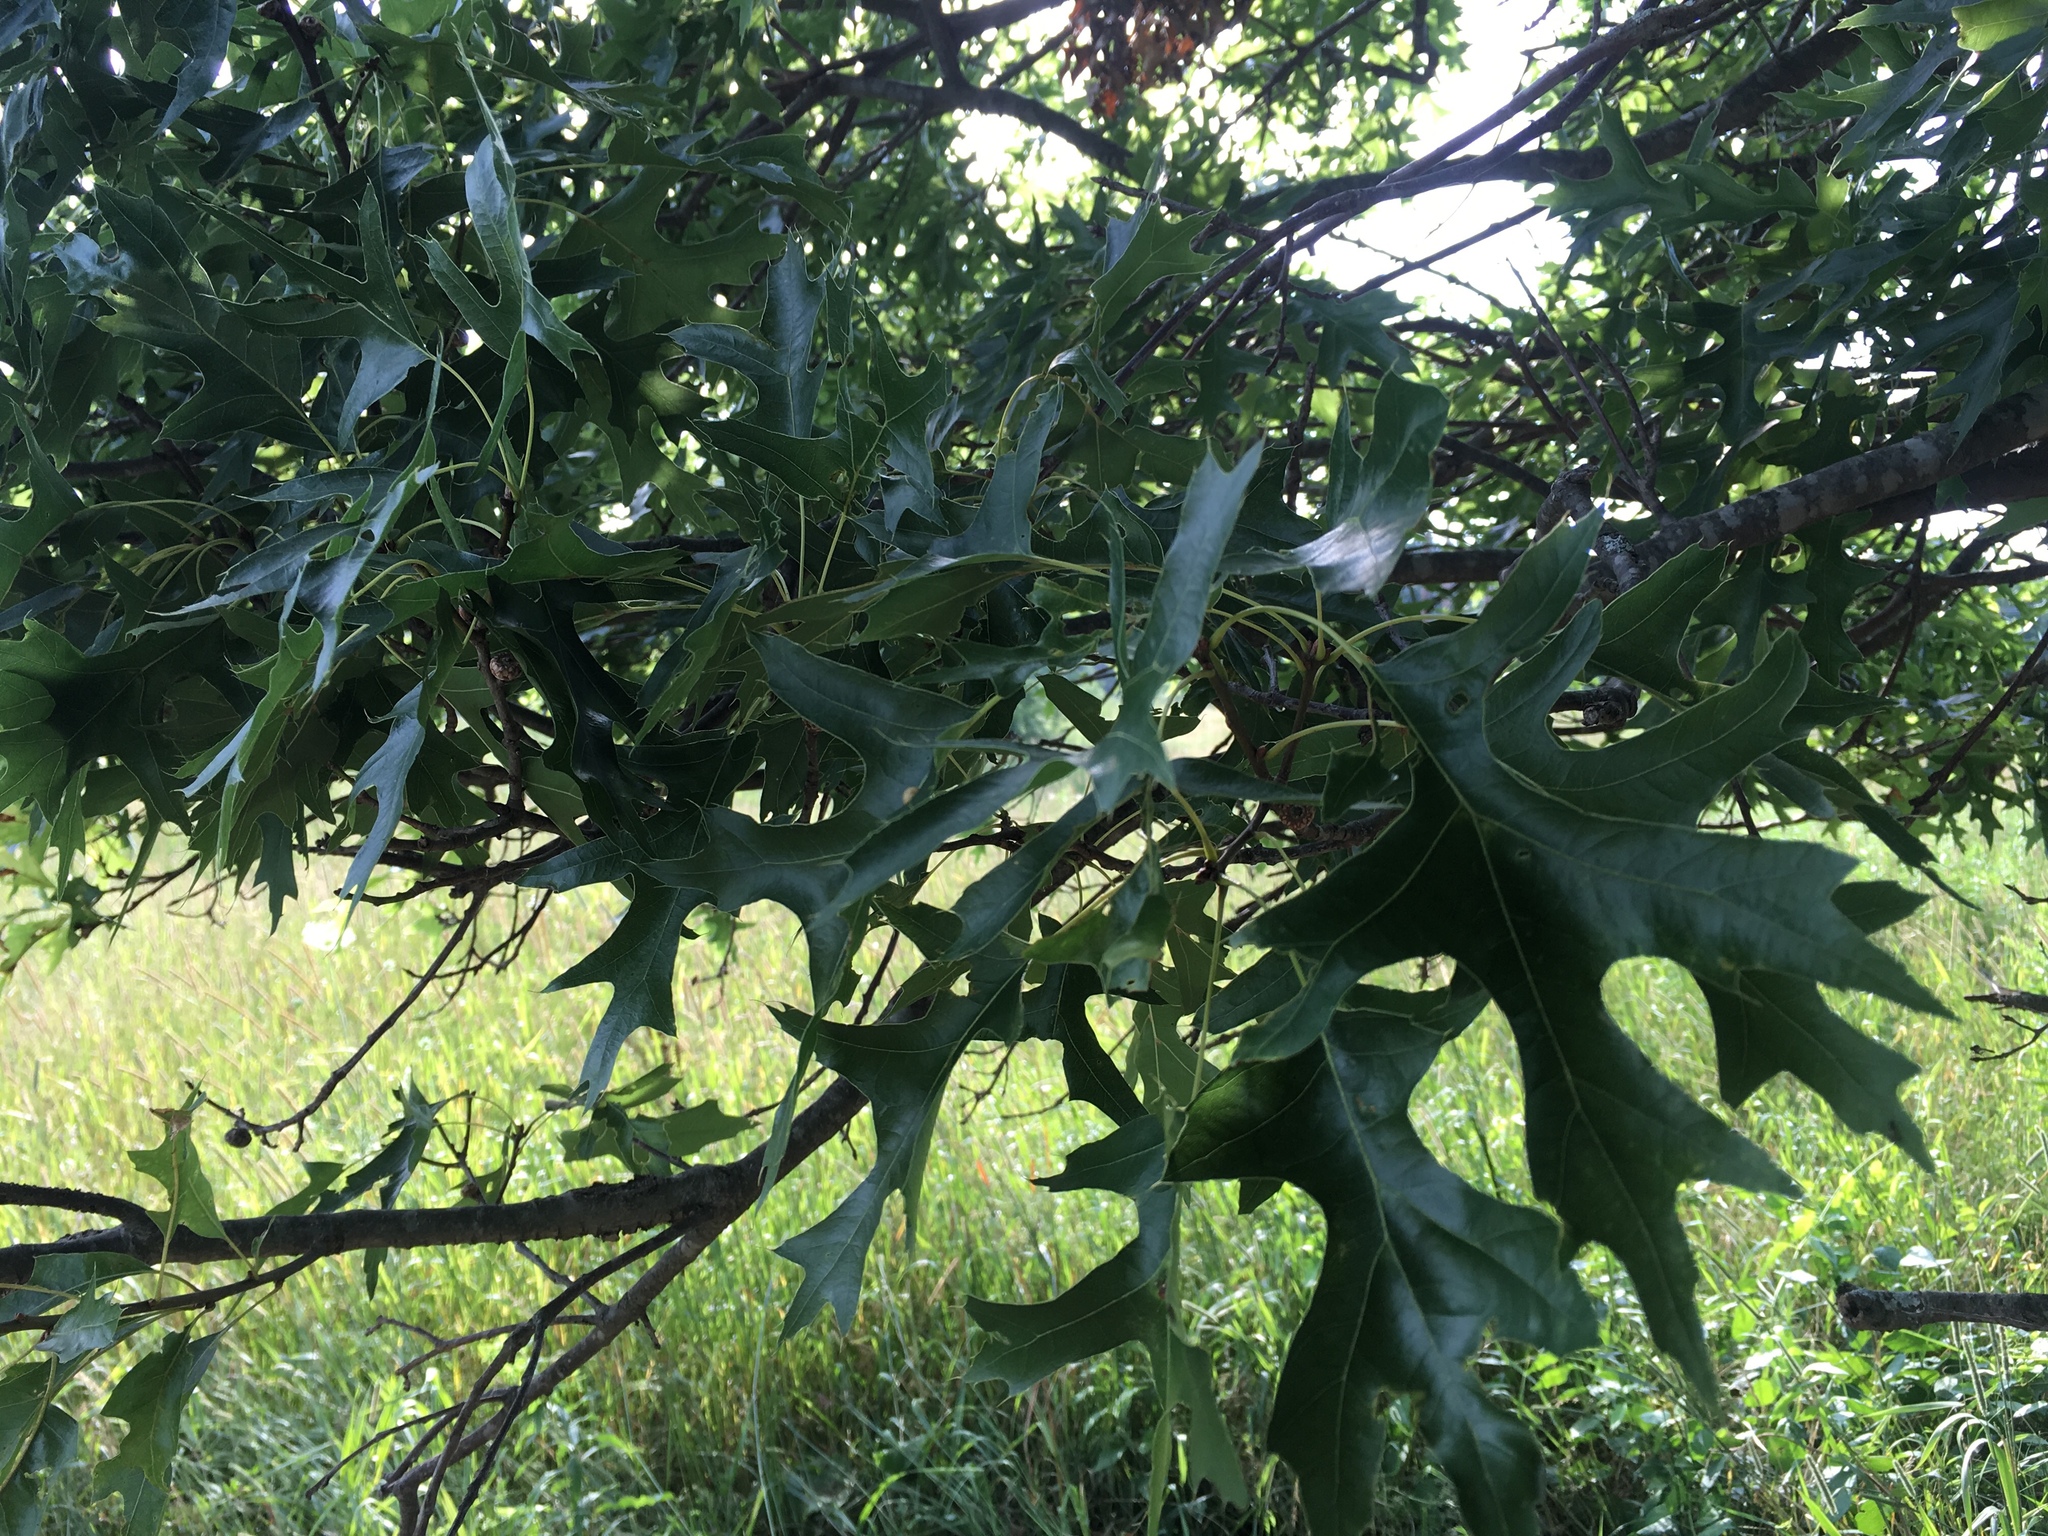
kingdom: Plantae
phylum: Tracheophyta
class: Magnoliopsida
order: Fagales
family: Fagaceae
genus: Quercus
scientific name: Quercus velutina
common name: Black oak
